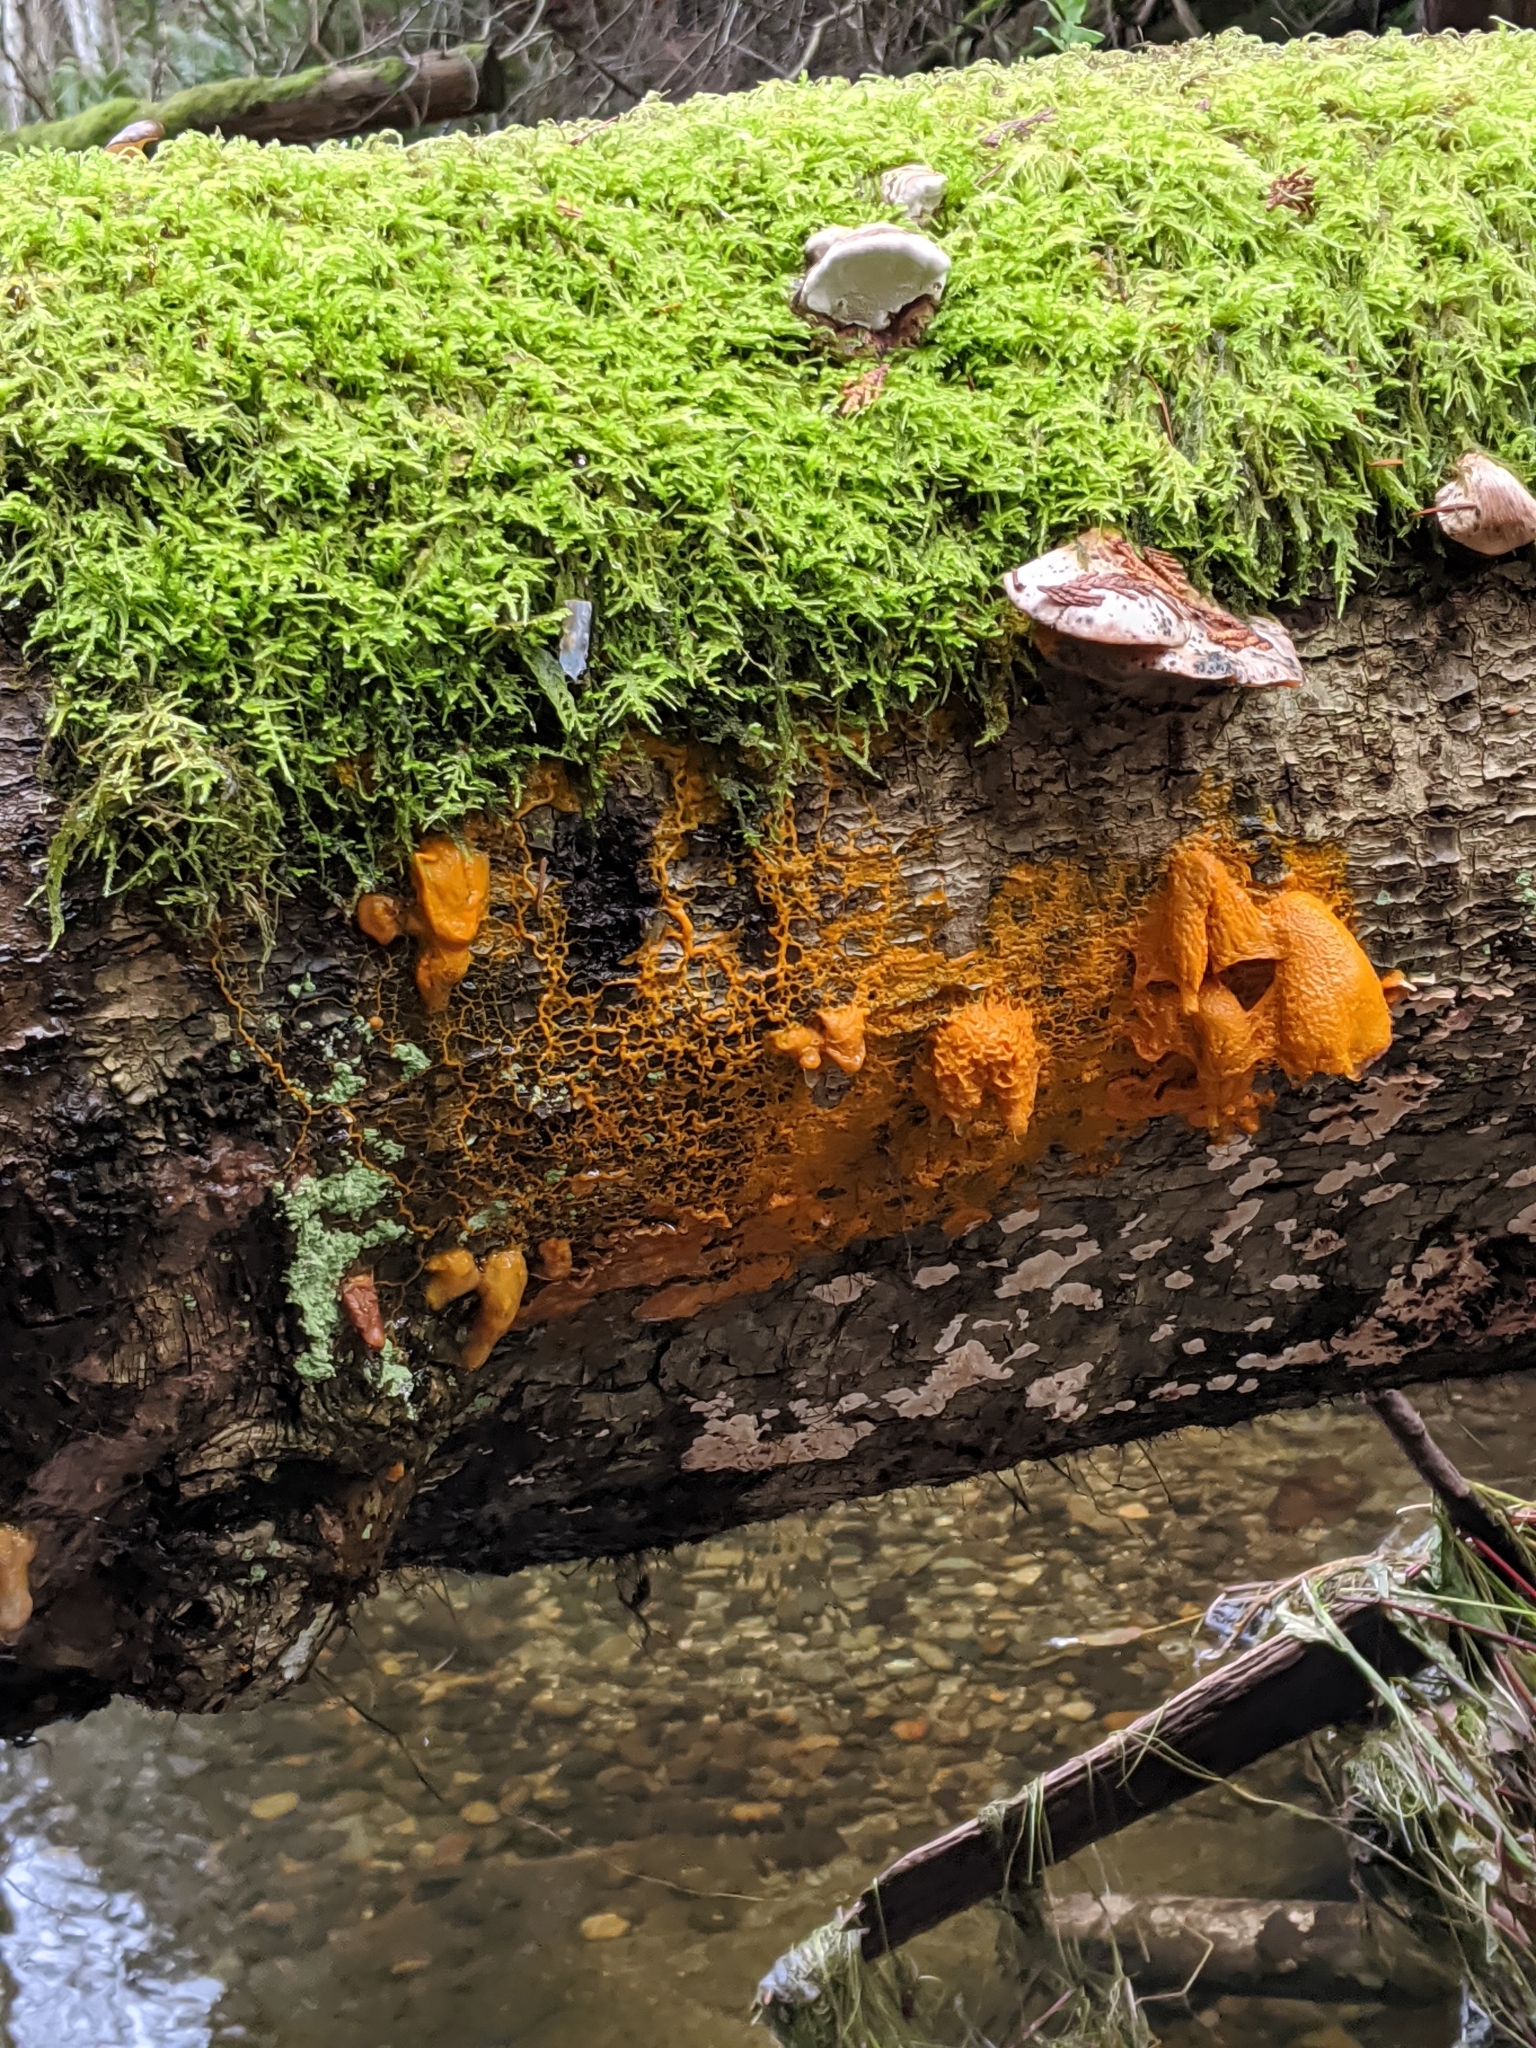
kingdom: Protozoa
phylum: Mycetozoa
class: Myxomycetes
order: Physarales
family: Physaraceae
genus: Badhamia
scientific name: Badhamia utricularis
